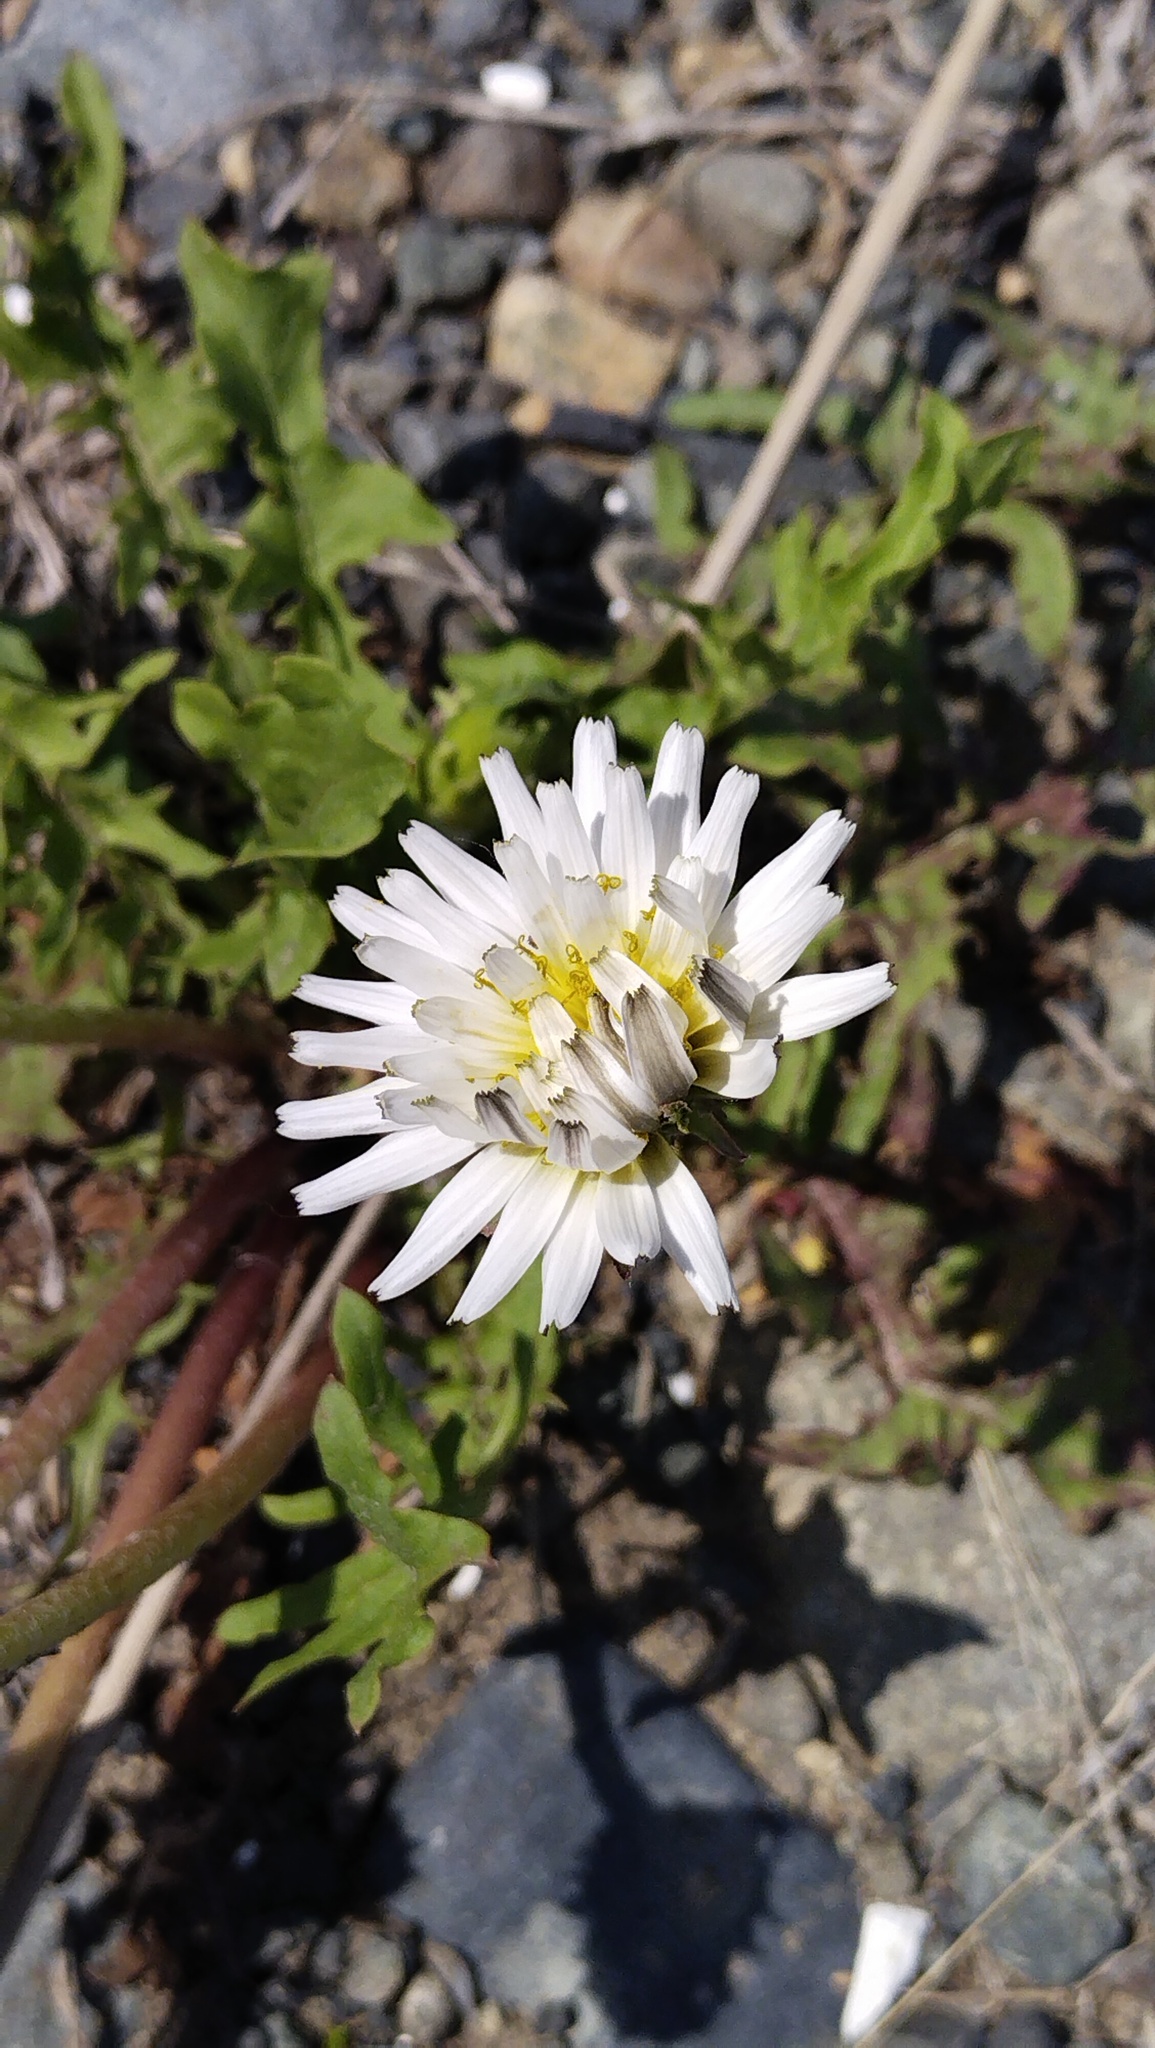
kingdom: Plantae
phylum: Tracheophyta
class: Magnoliopsida
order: Asterales
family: Asteraceae
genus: Taraxacum
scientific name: Taraxacum coreanum
